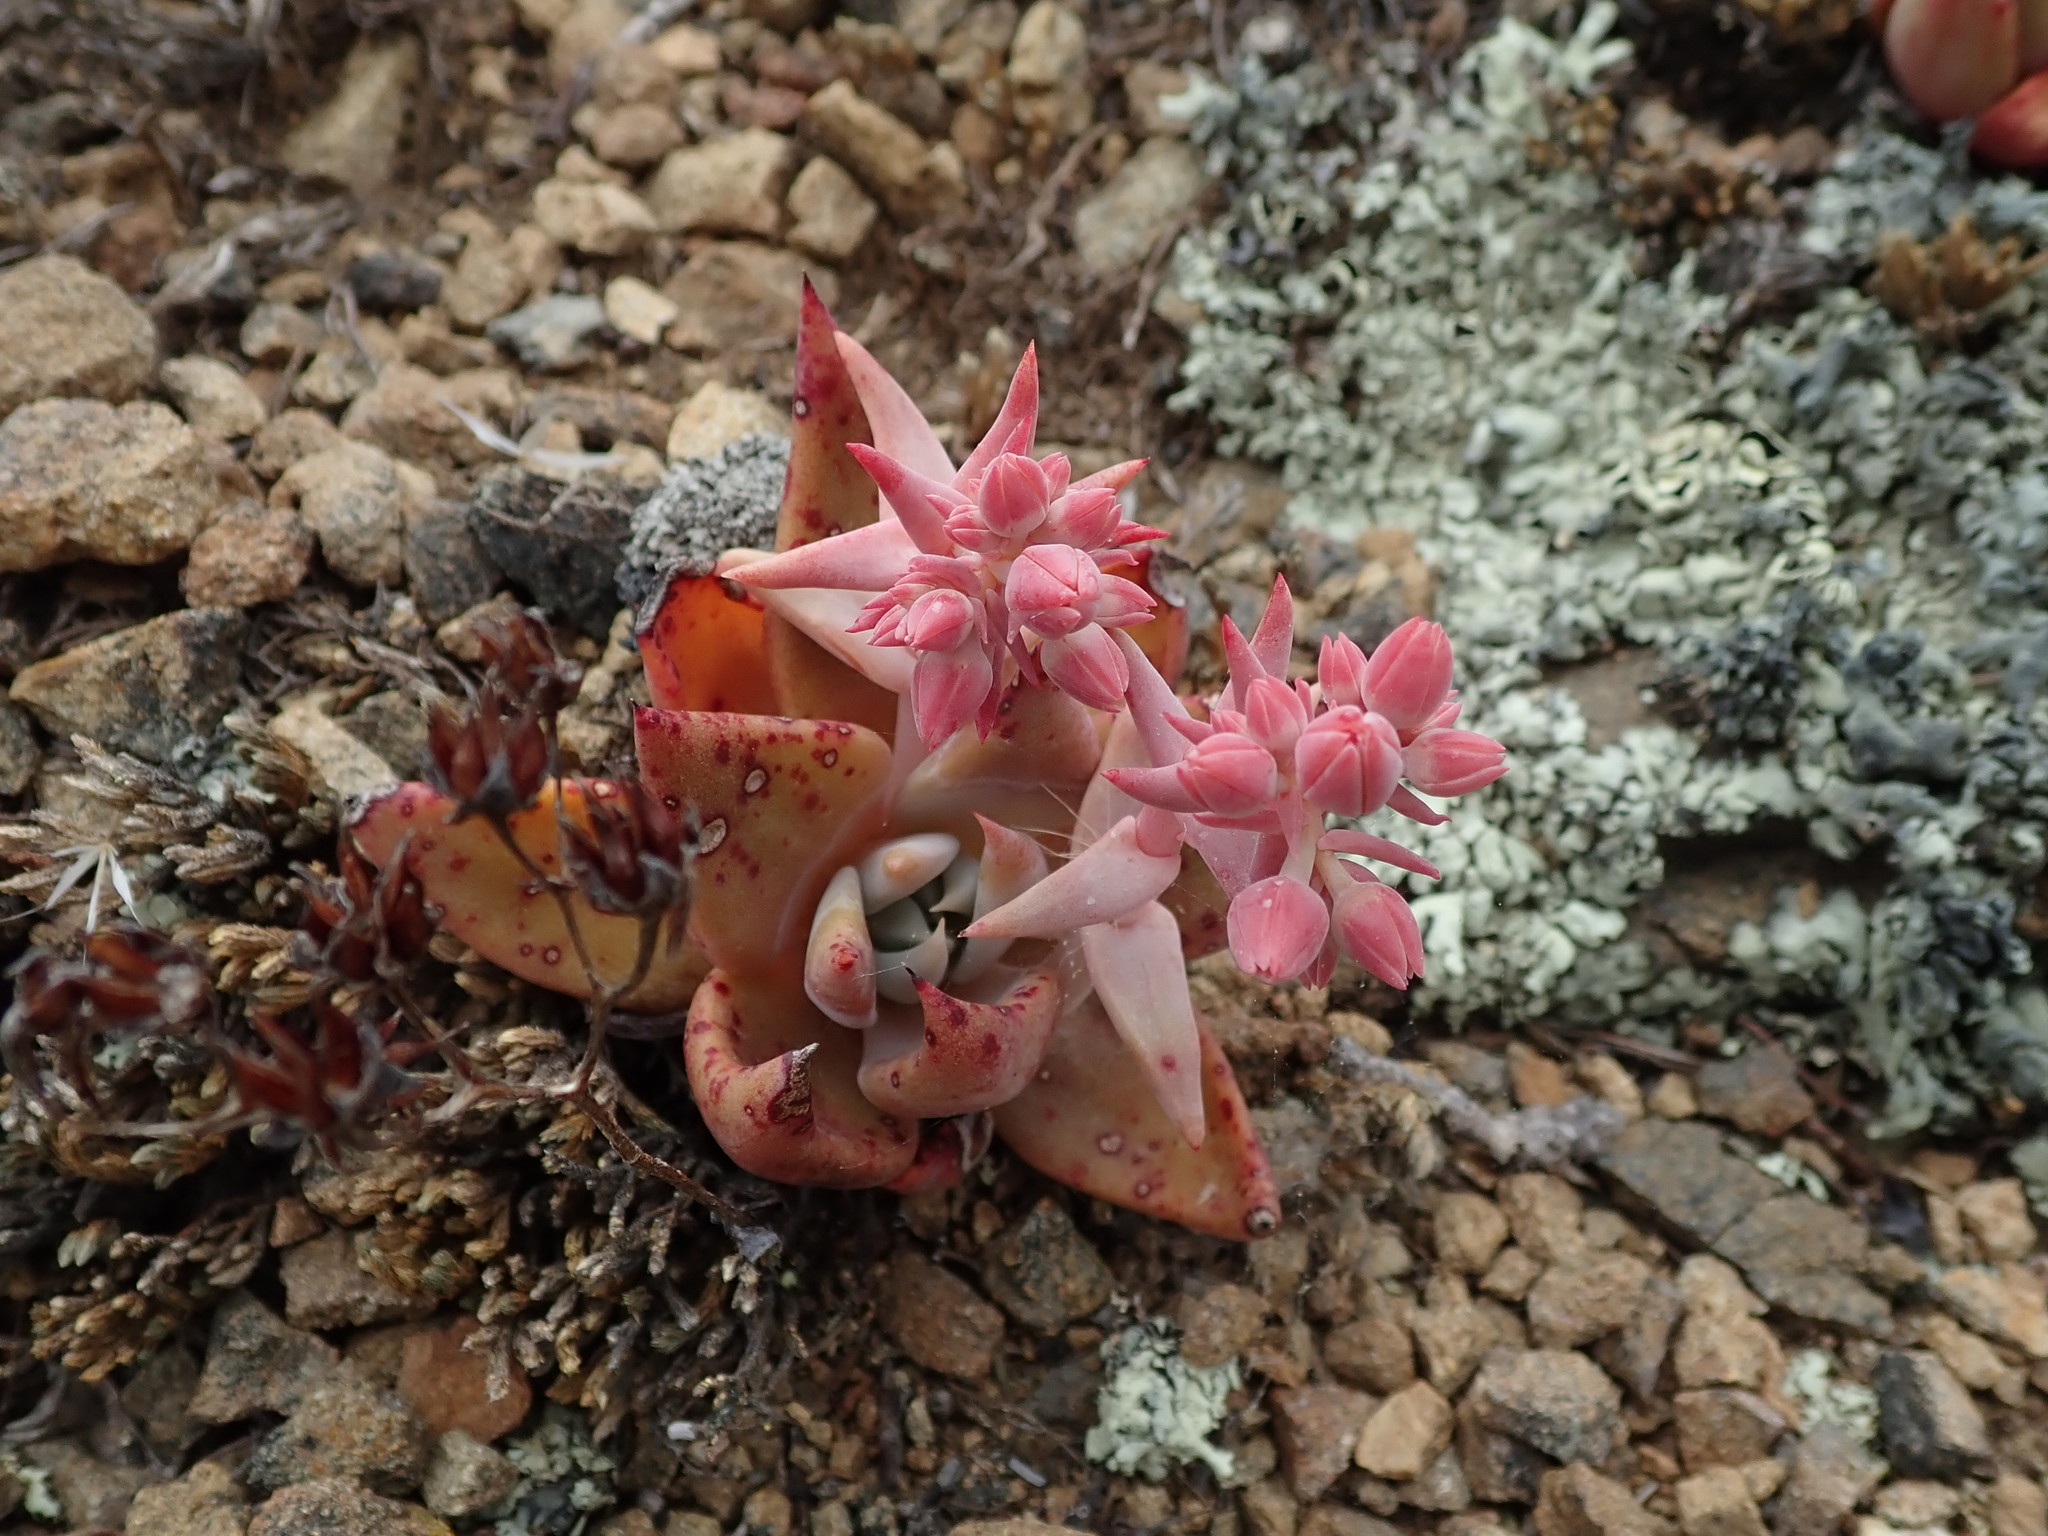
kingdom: Plantae
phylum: Tracheophyta
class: Magnoliopsida
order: Saxifragales
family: Crassulaceae
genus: Dudleya
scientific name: Dudleya cymosa
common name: Canyon dudleya
